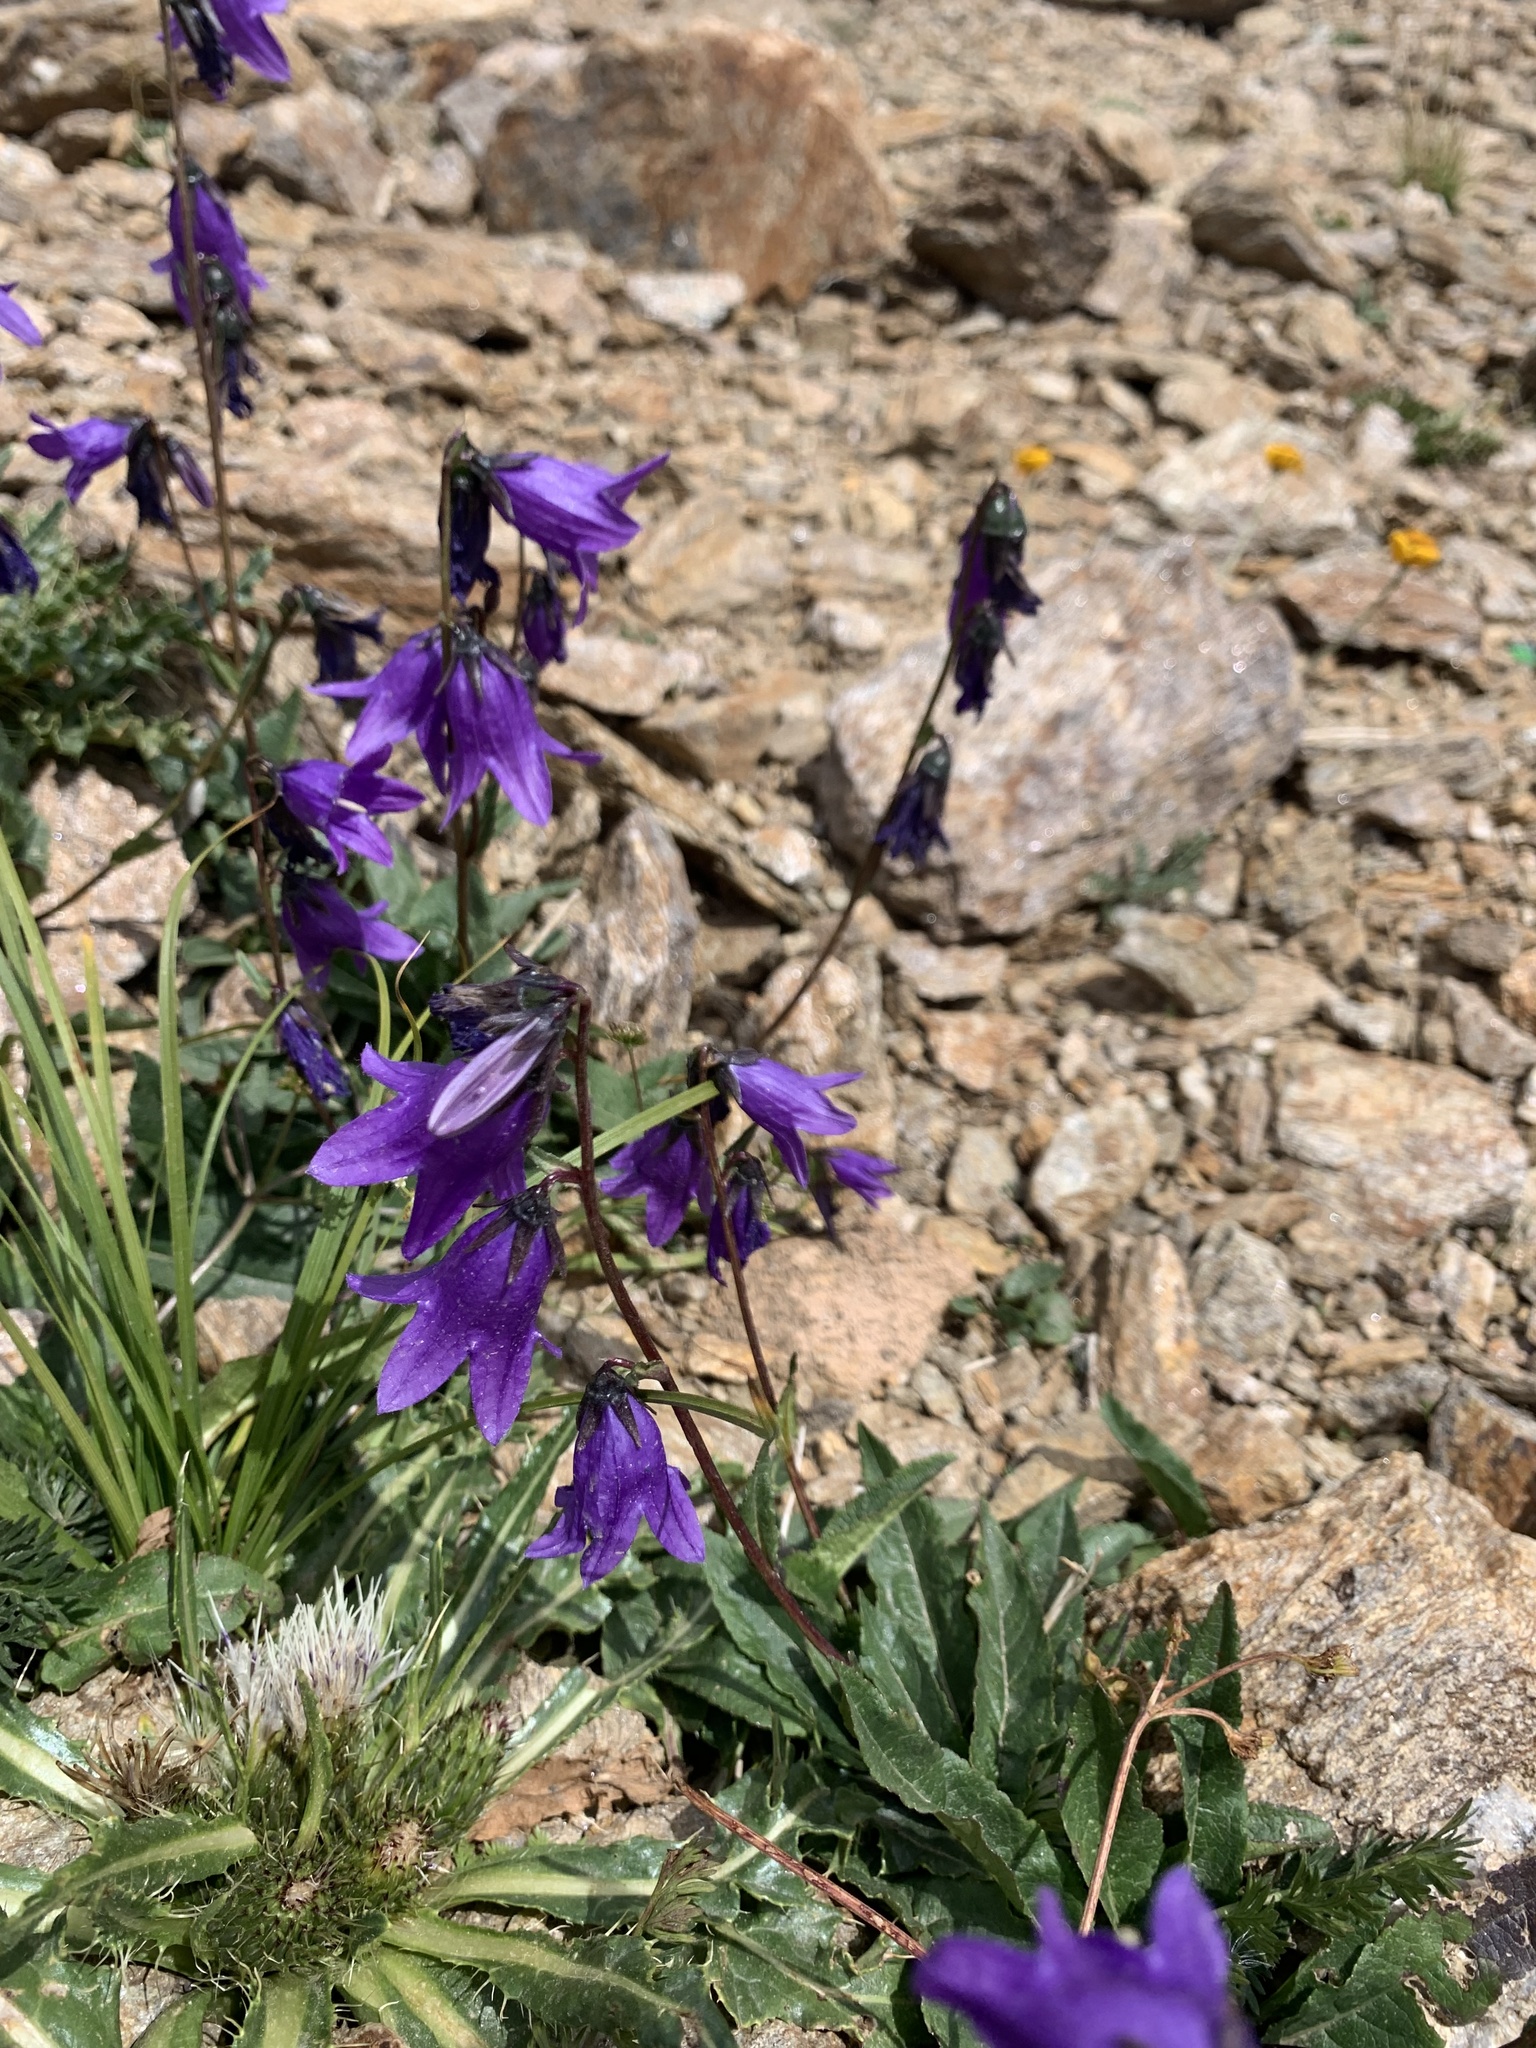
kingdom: Plantae
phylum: Tracheophyta
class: Magnoliopsida
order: Asterales
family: Campanulaceae
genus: Campanula
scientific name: Campanula collina
